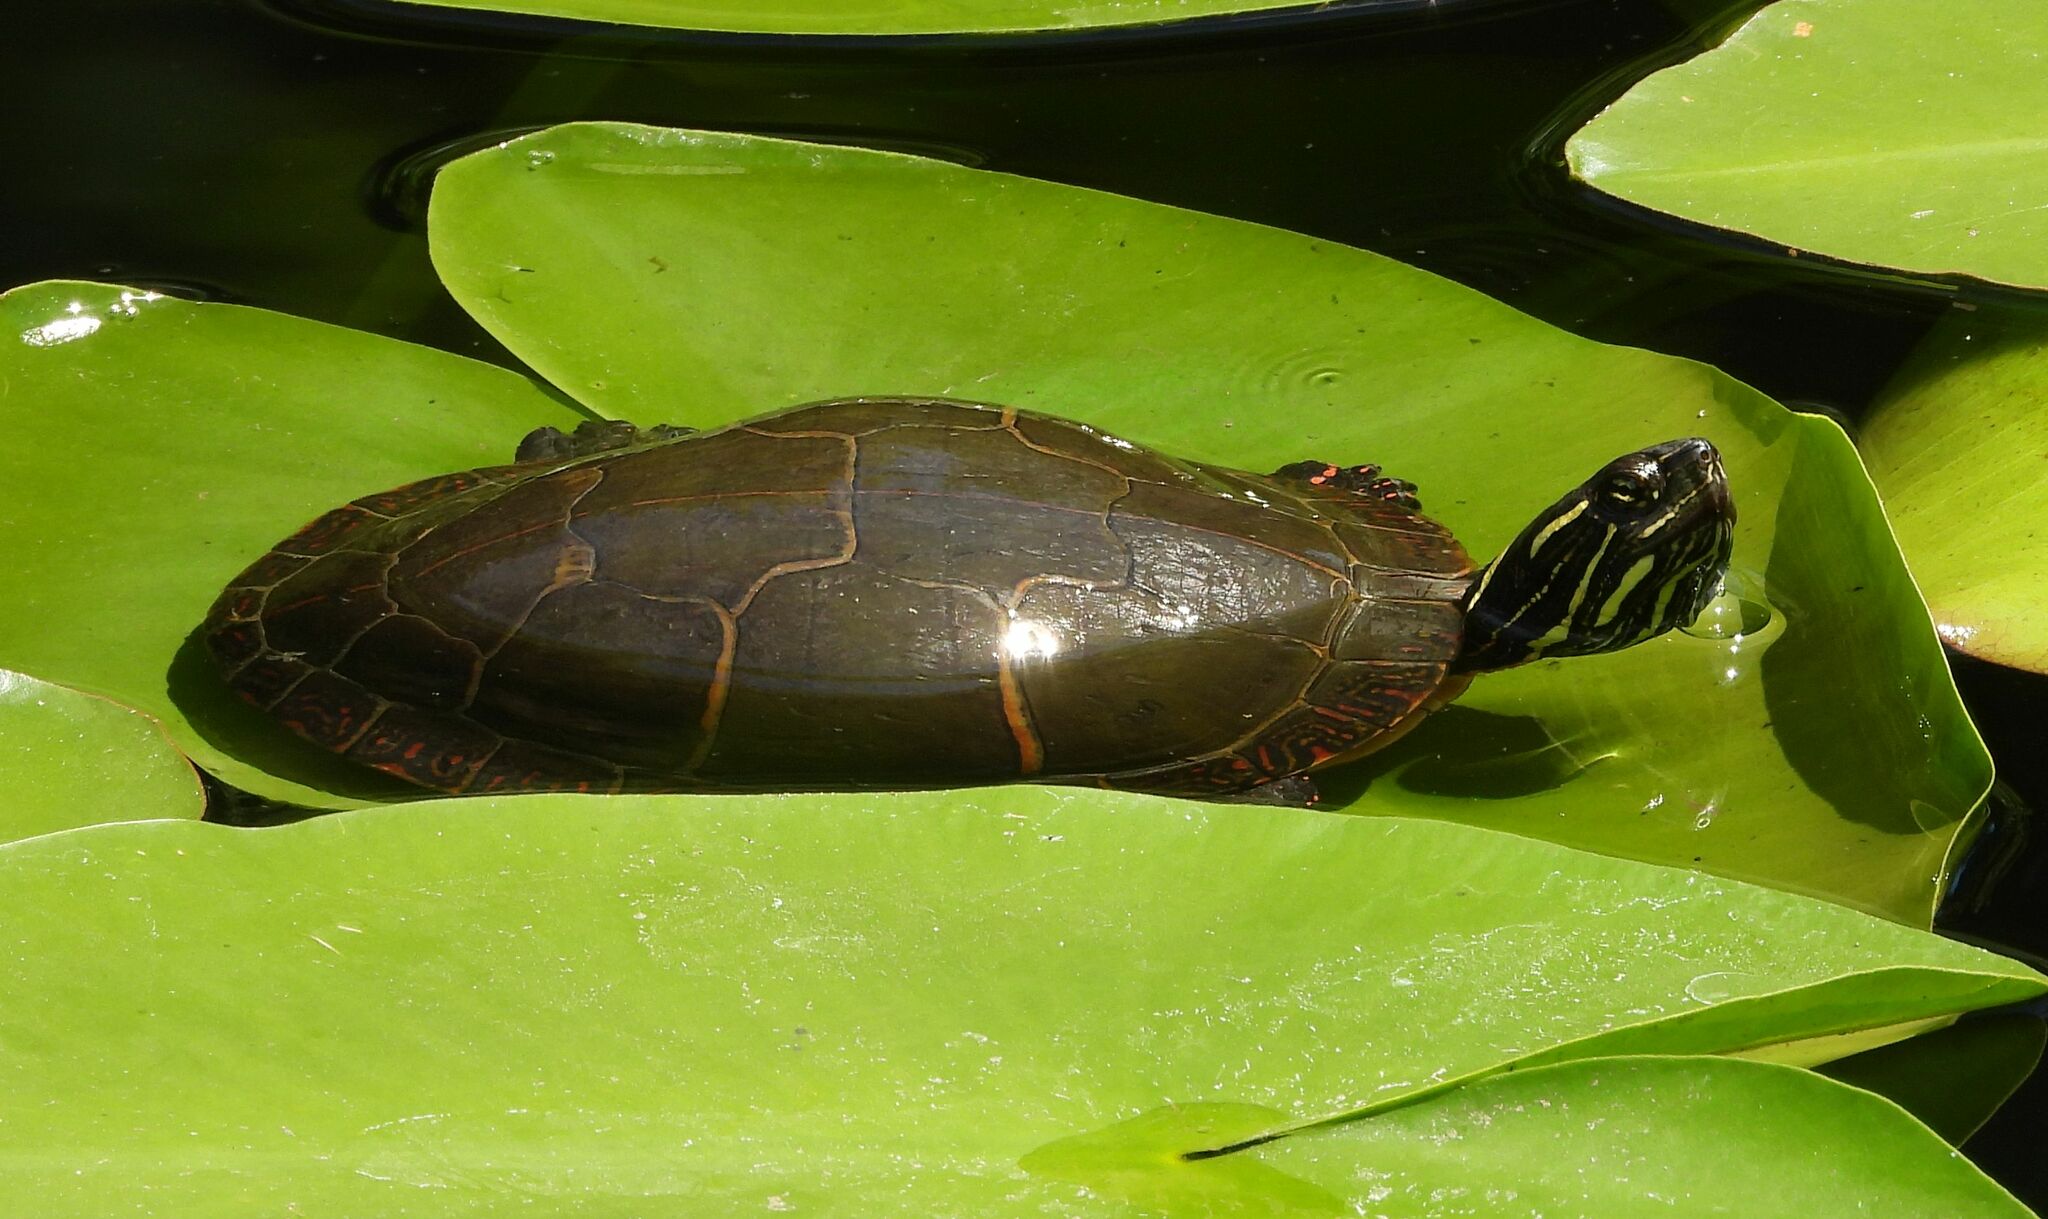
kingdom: Animalia
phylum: Chordata
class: Testudines
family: Emydidae
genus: Chrysemys
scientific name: Chrysemys picta
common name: Painted turtle
